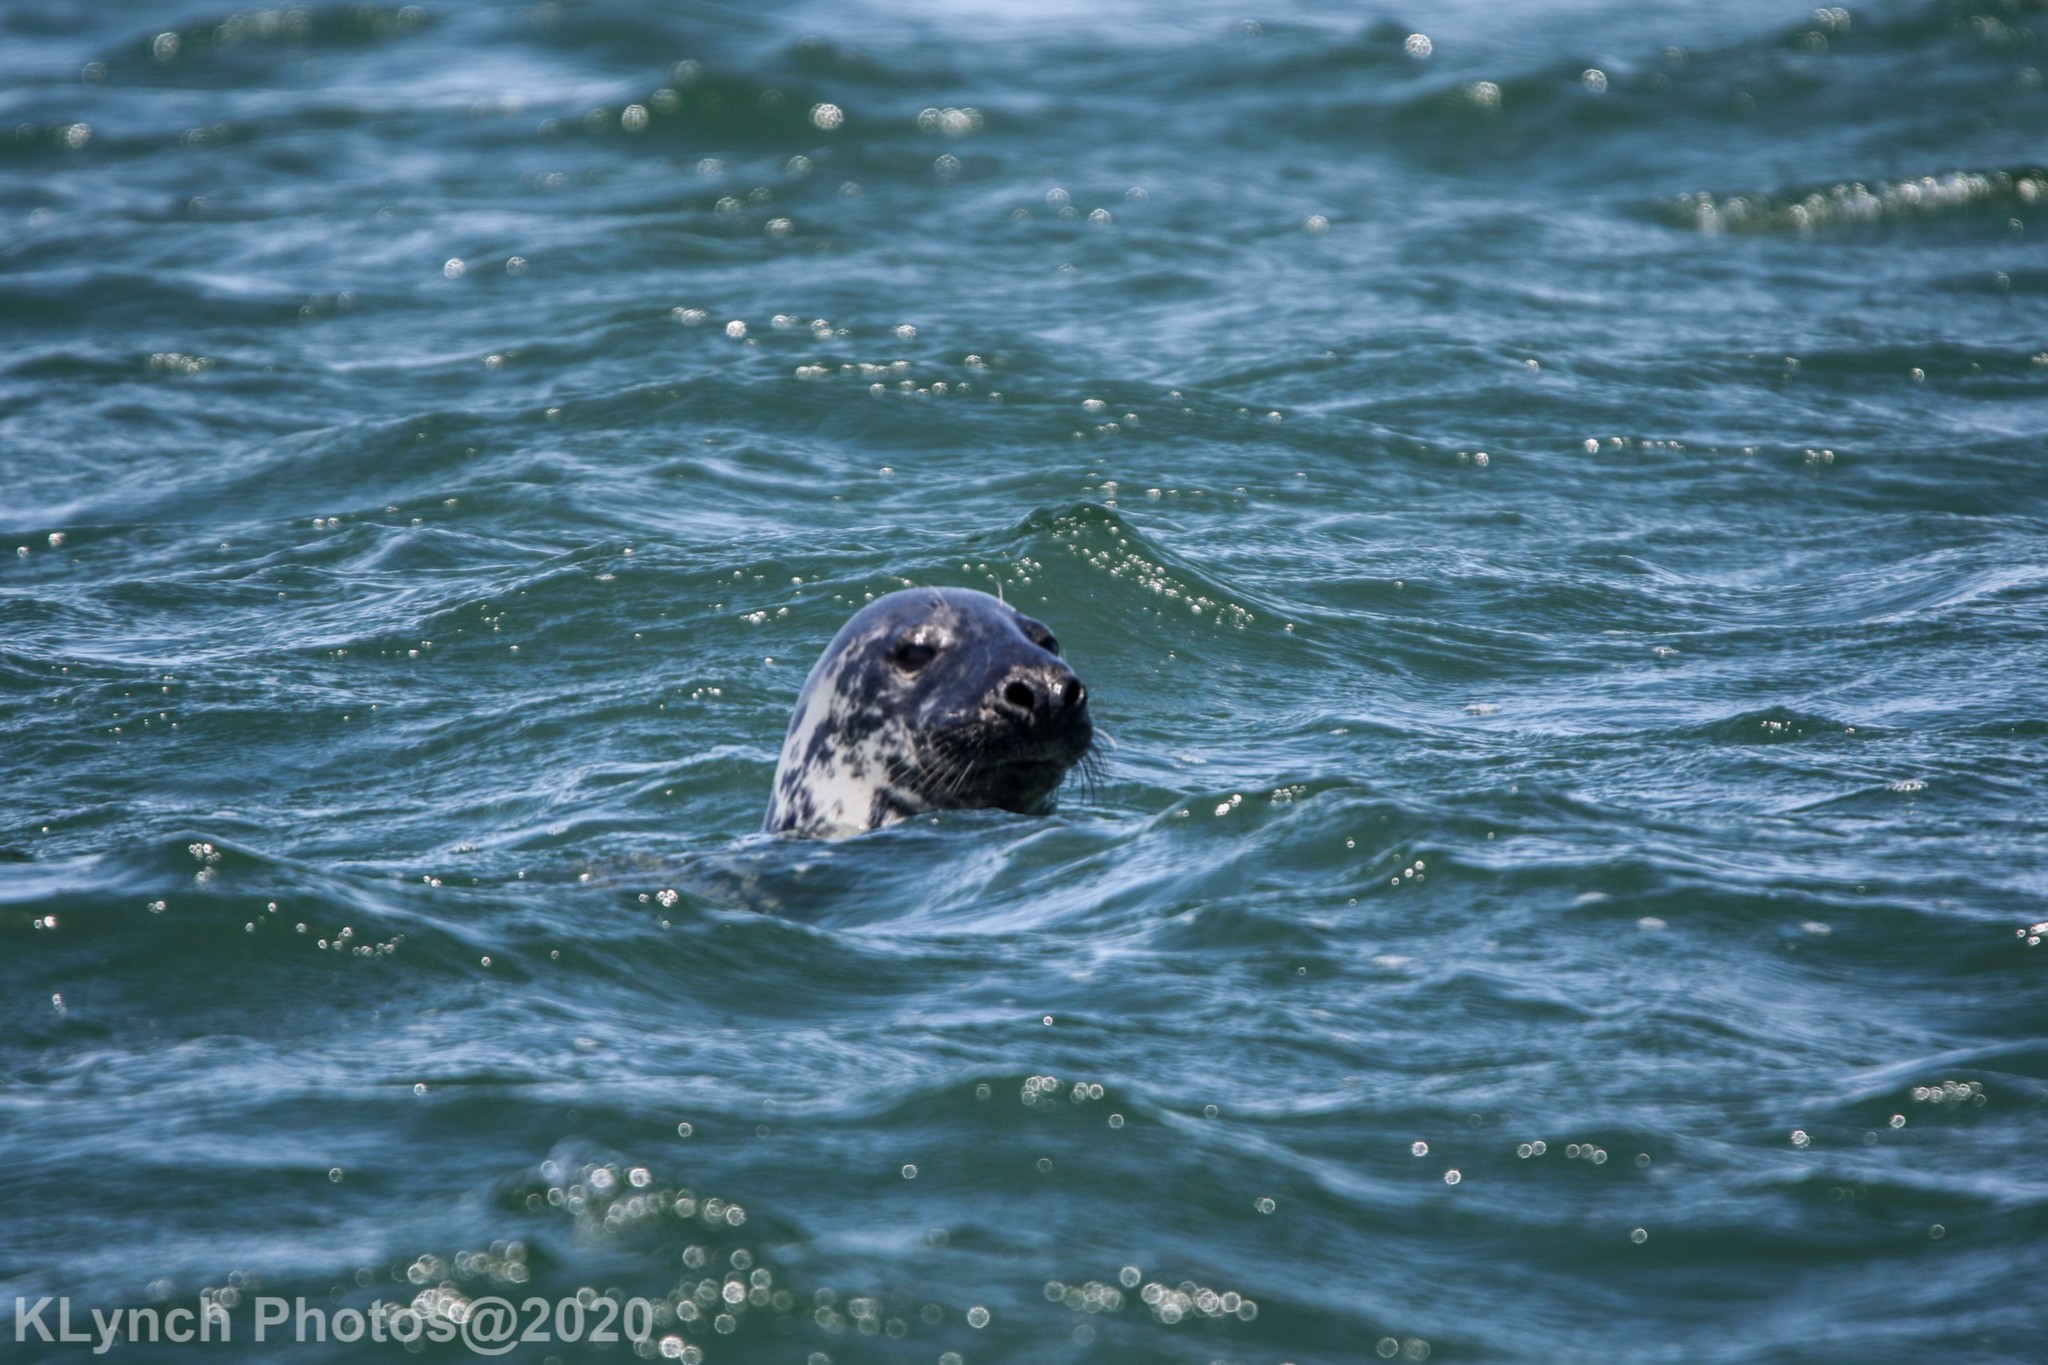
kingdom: Animalia
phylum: Chordata
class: Mammalia
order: Carnivora
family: Phocidae
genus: Halichoerus
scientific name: Halichoerus grypus
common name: Grey seal
